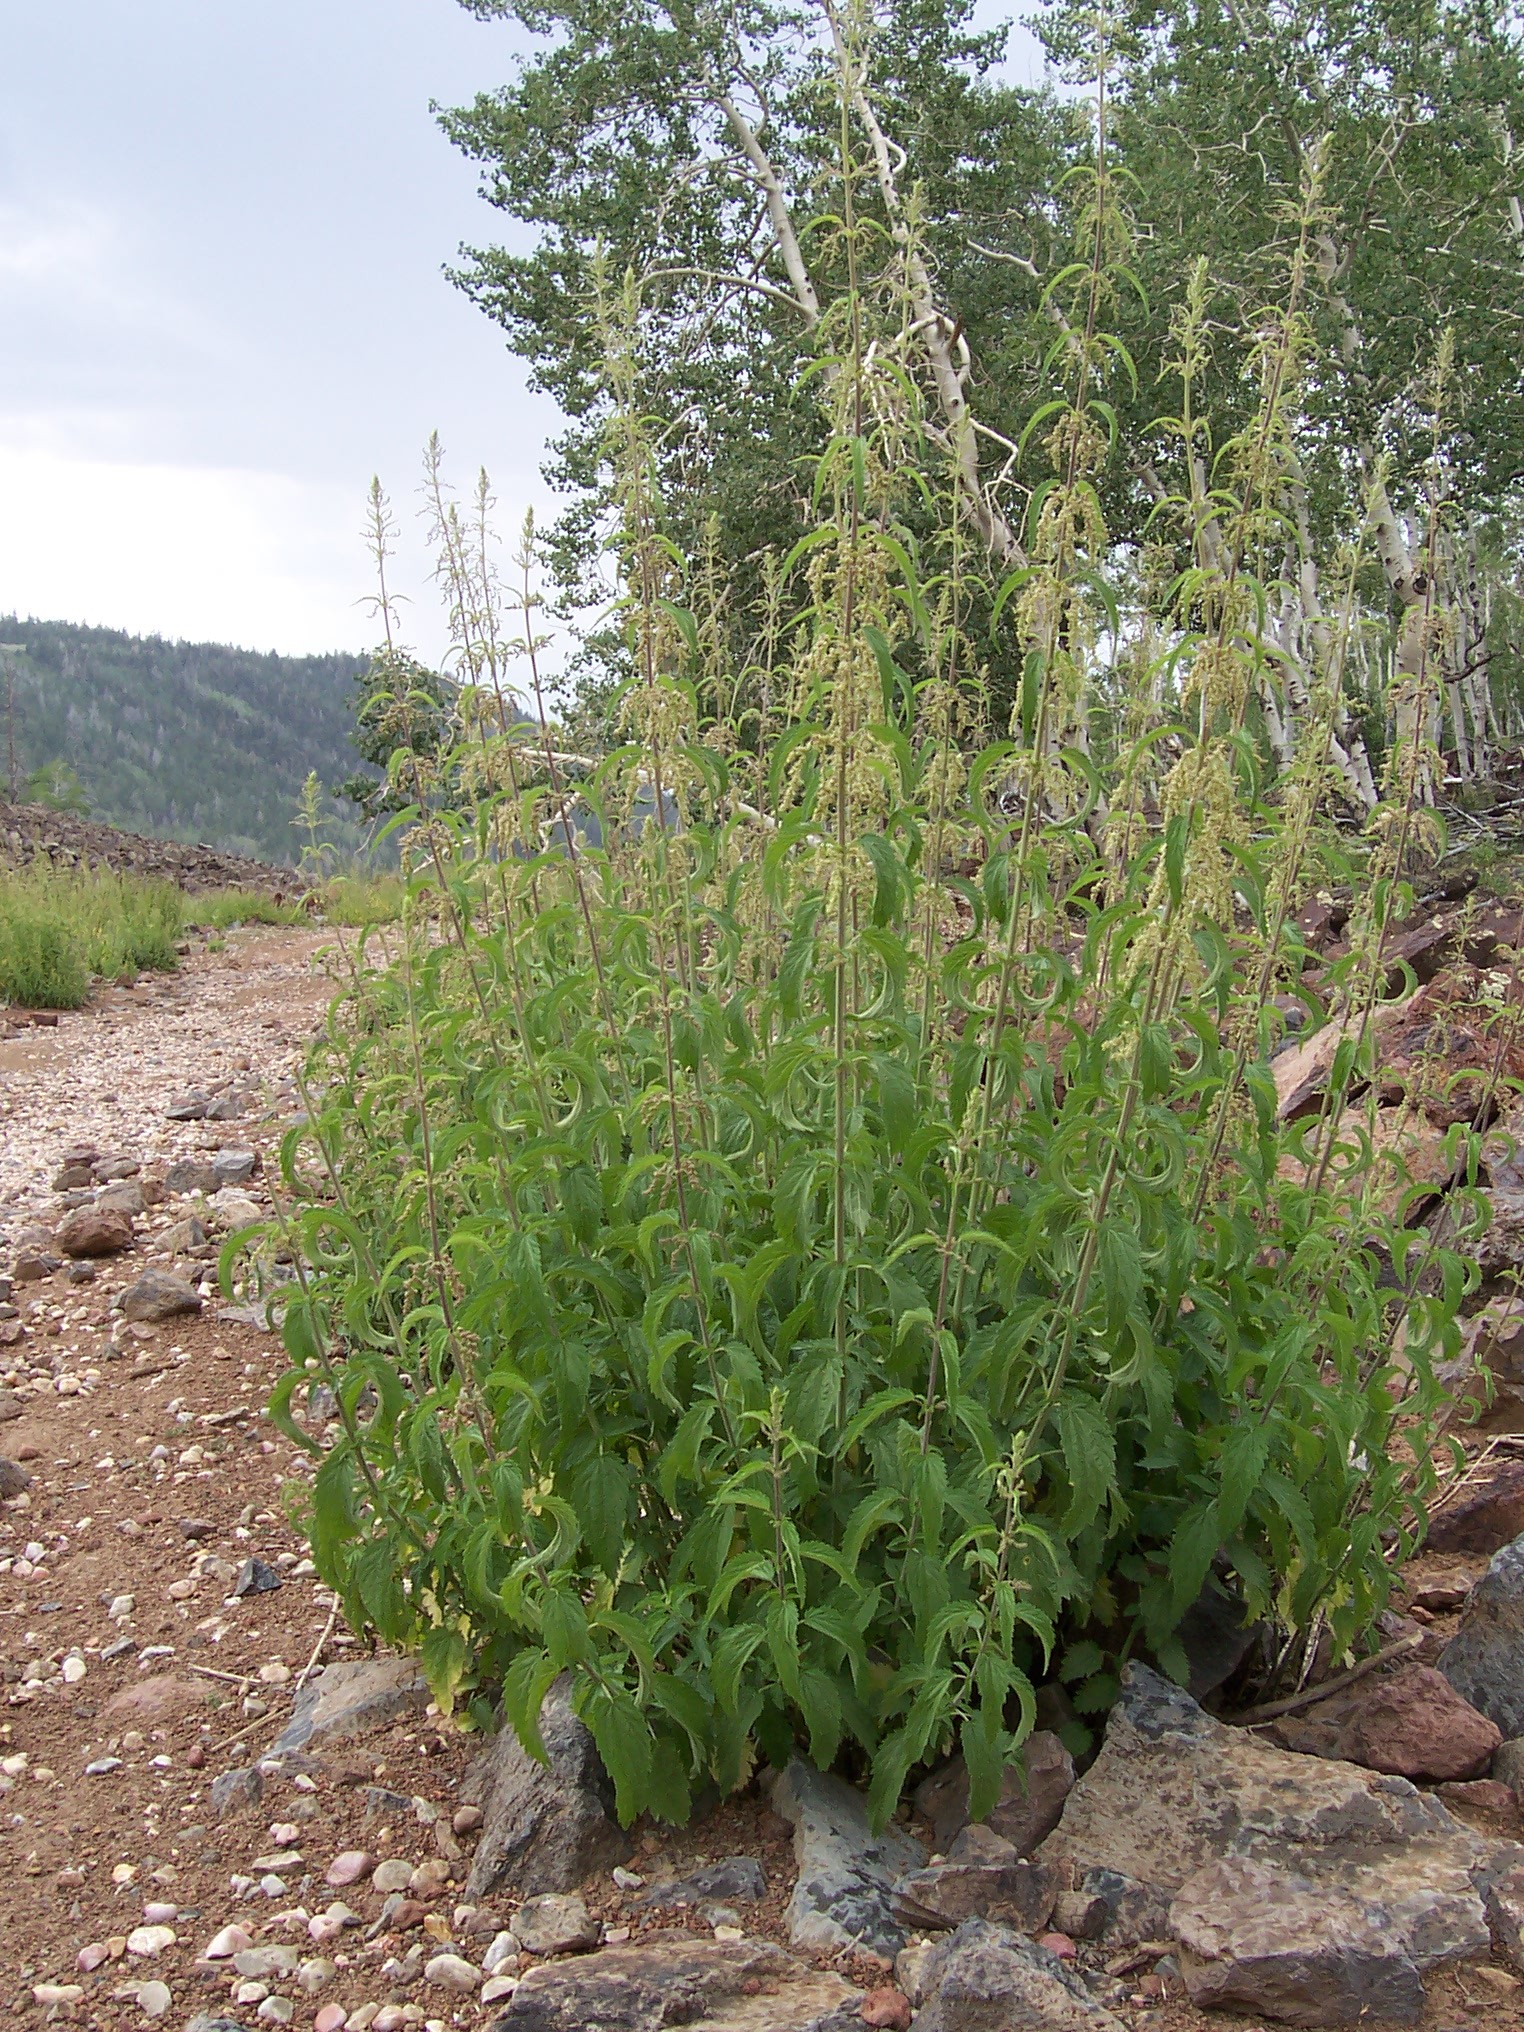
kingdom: Plantae
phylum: Tracheophyta
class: Magnoliopsida
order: Rosales
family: Urticaceae
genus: Urtica
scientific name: Urtica dioica
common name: Common nettle
